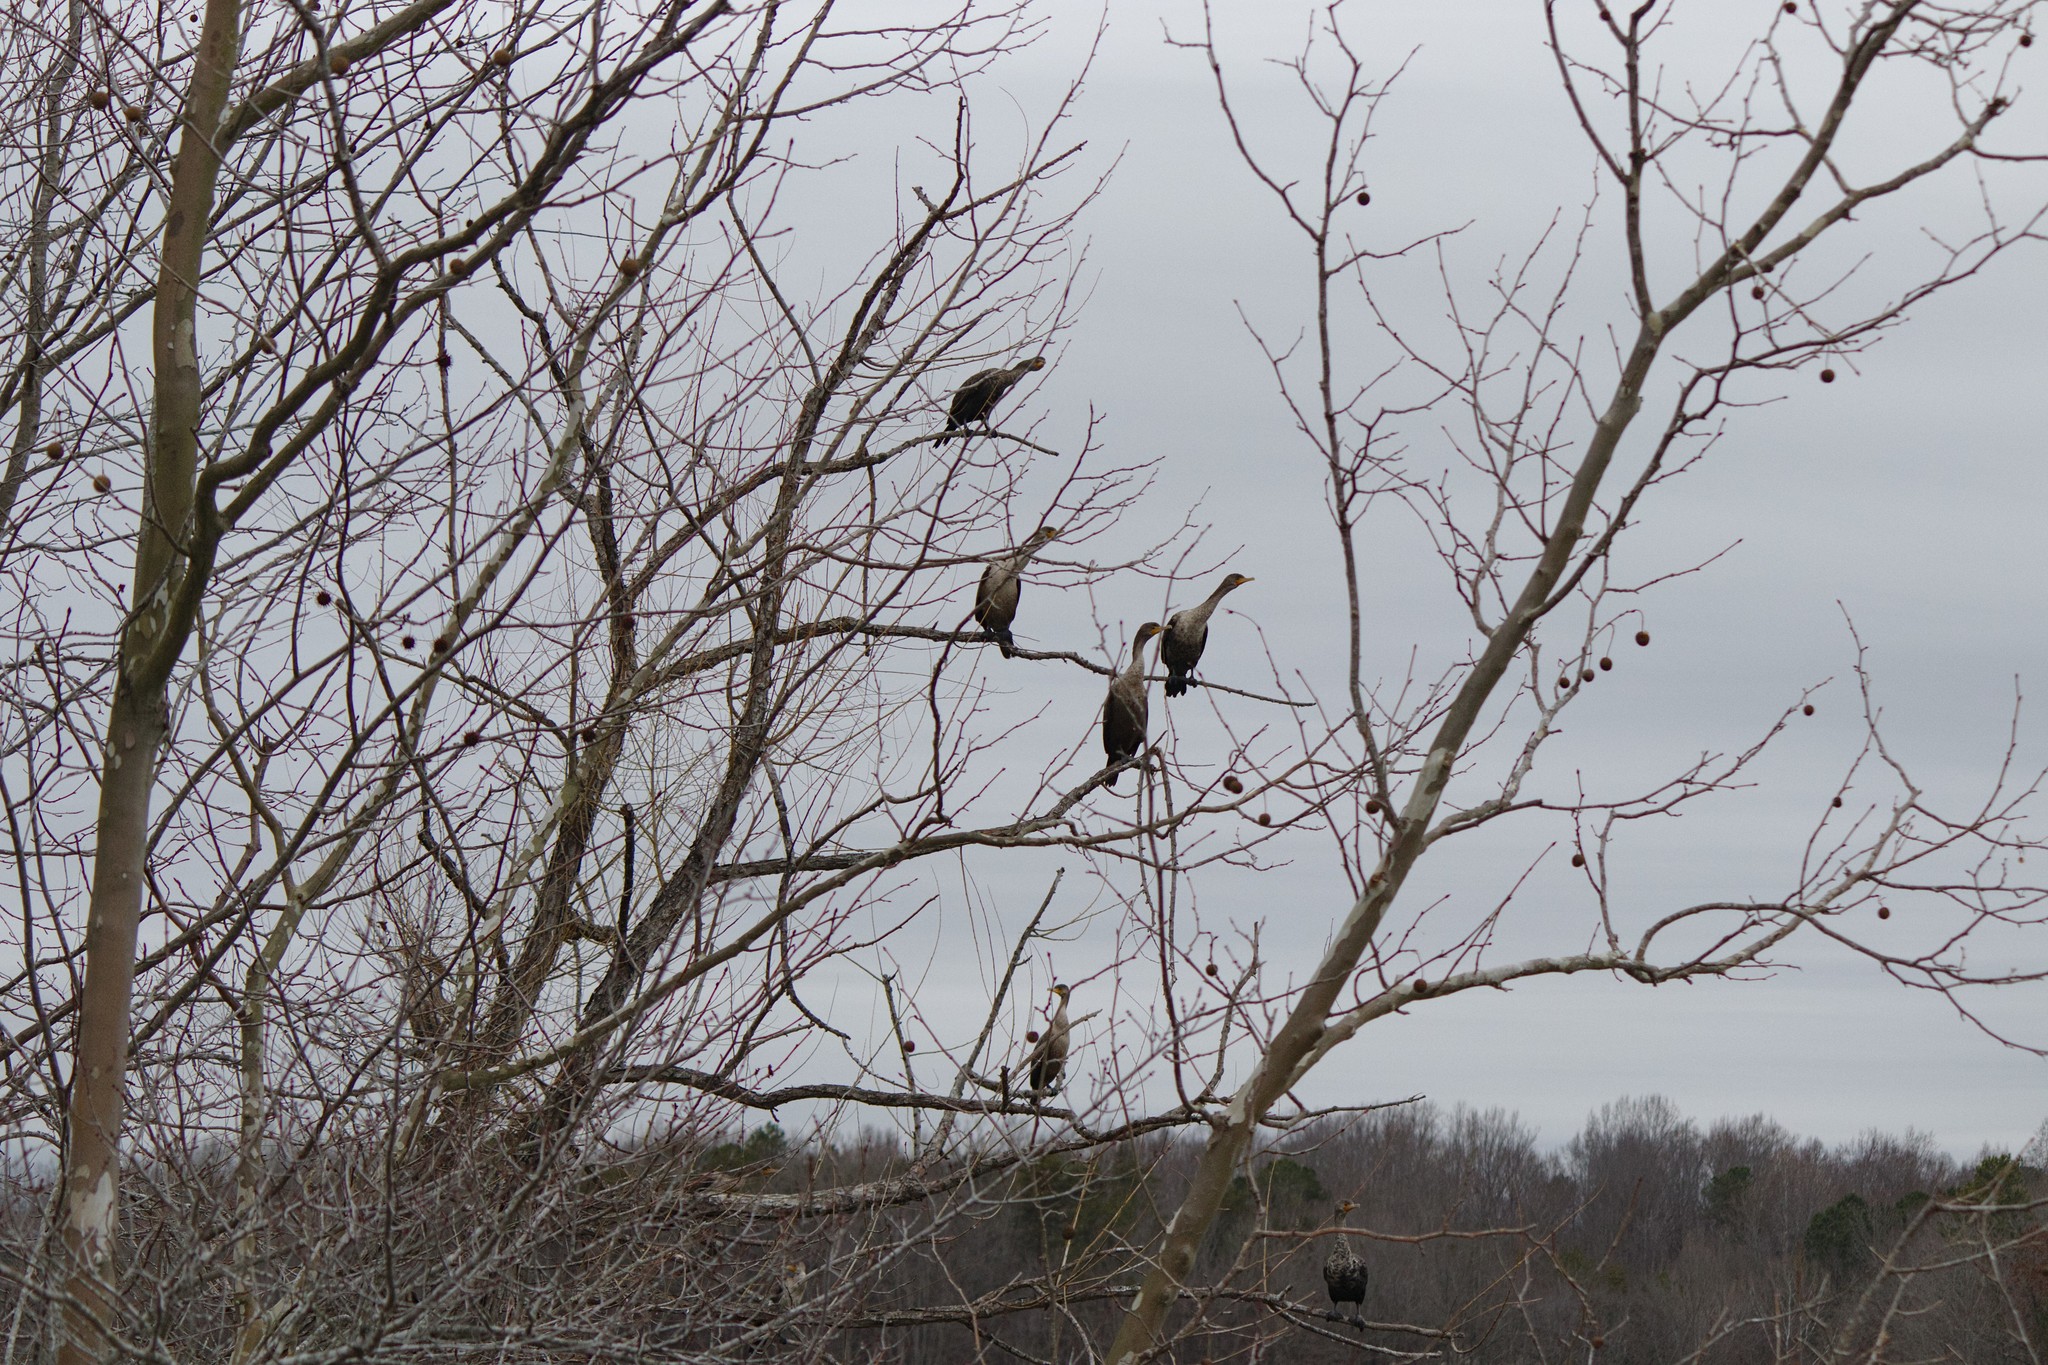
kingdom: Plantae
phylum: Tracheophyta
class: Magnoliopsida
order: Saxifragales
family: Altingiaceae
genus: Liquidambar
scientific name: Liquidambar styraciflua
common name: Sweet gum
